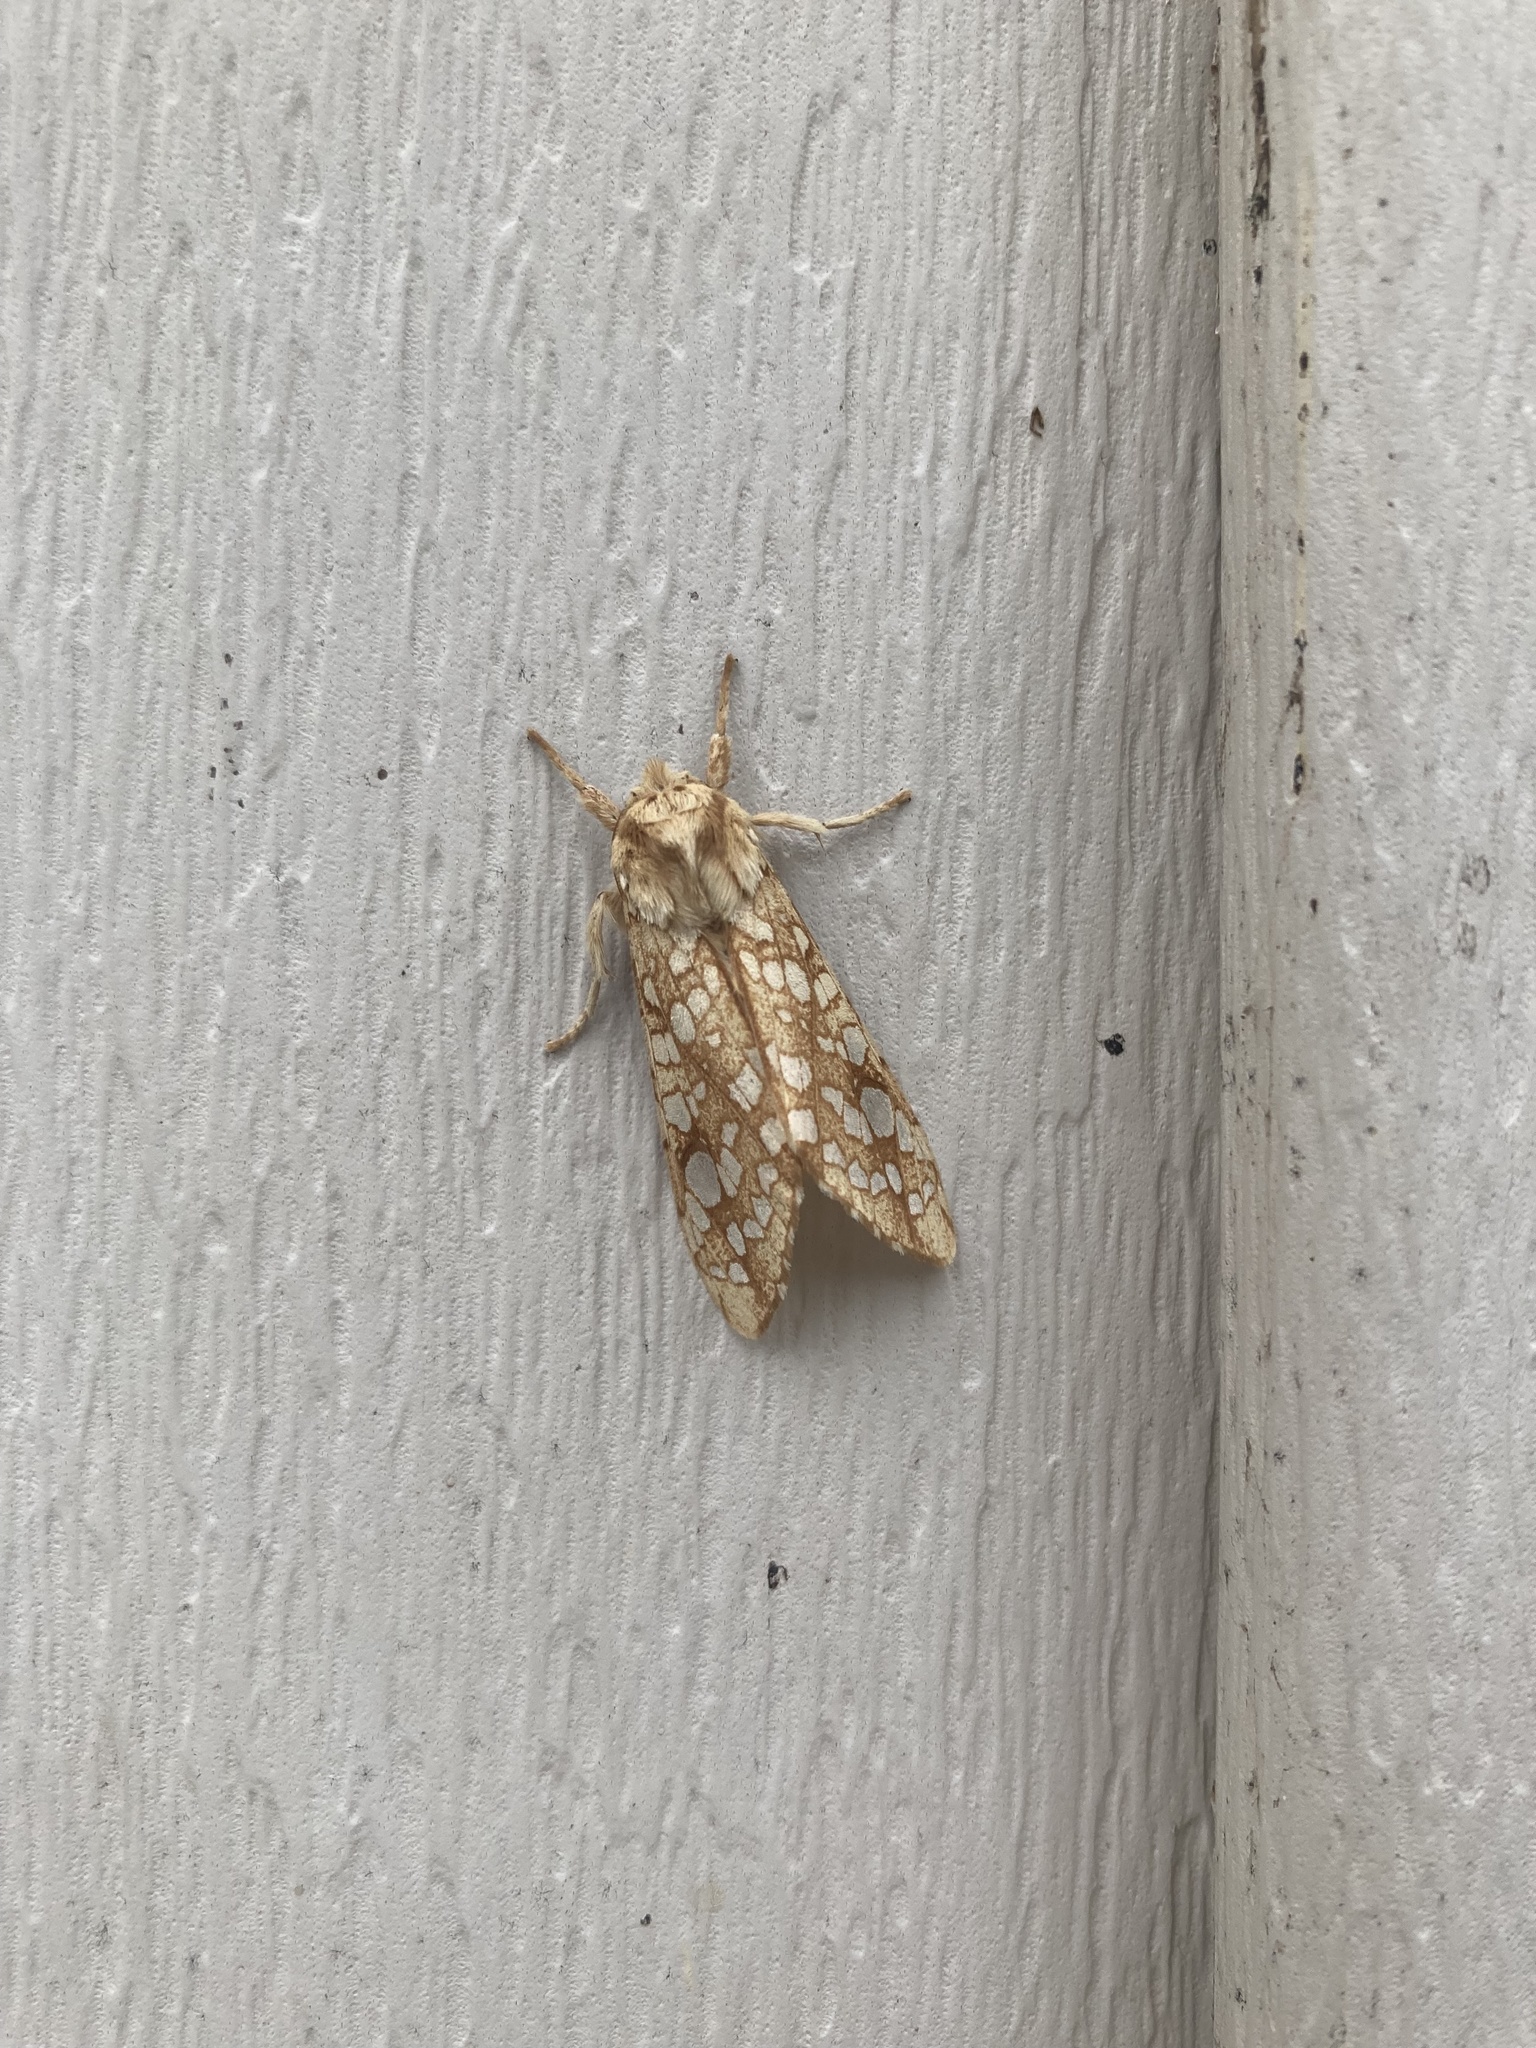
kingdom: Animalia
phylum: Arthropoda
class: Insecta
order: Lepidoptera
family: Erebidae
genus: Lophocampa
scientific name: Lophocampa caryae
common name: Hickory tussock moth
